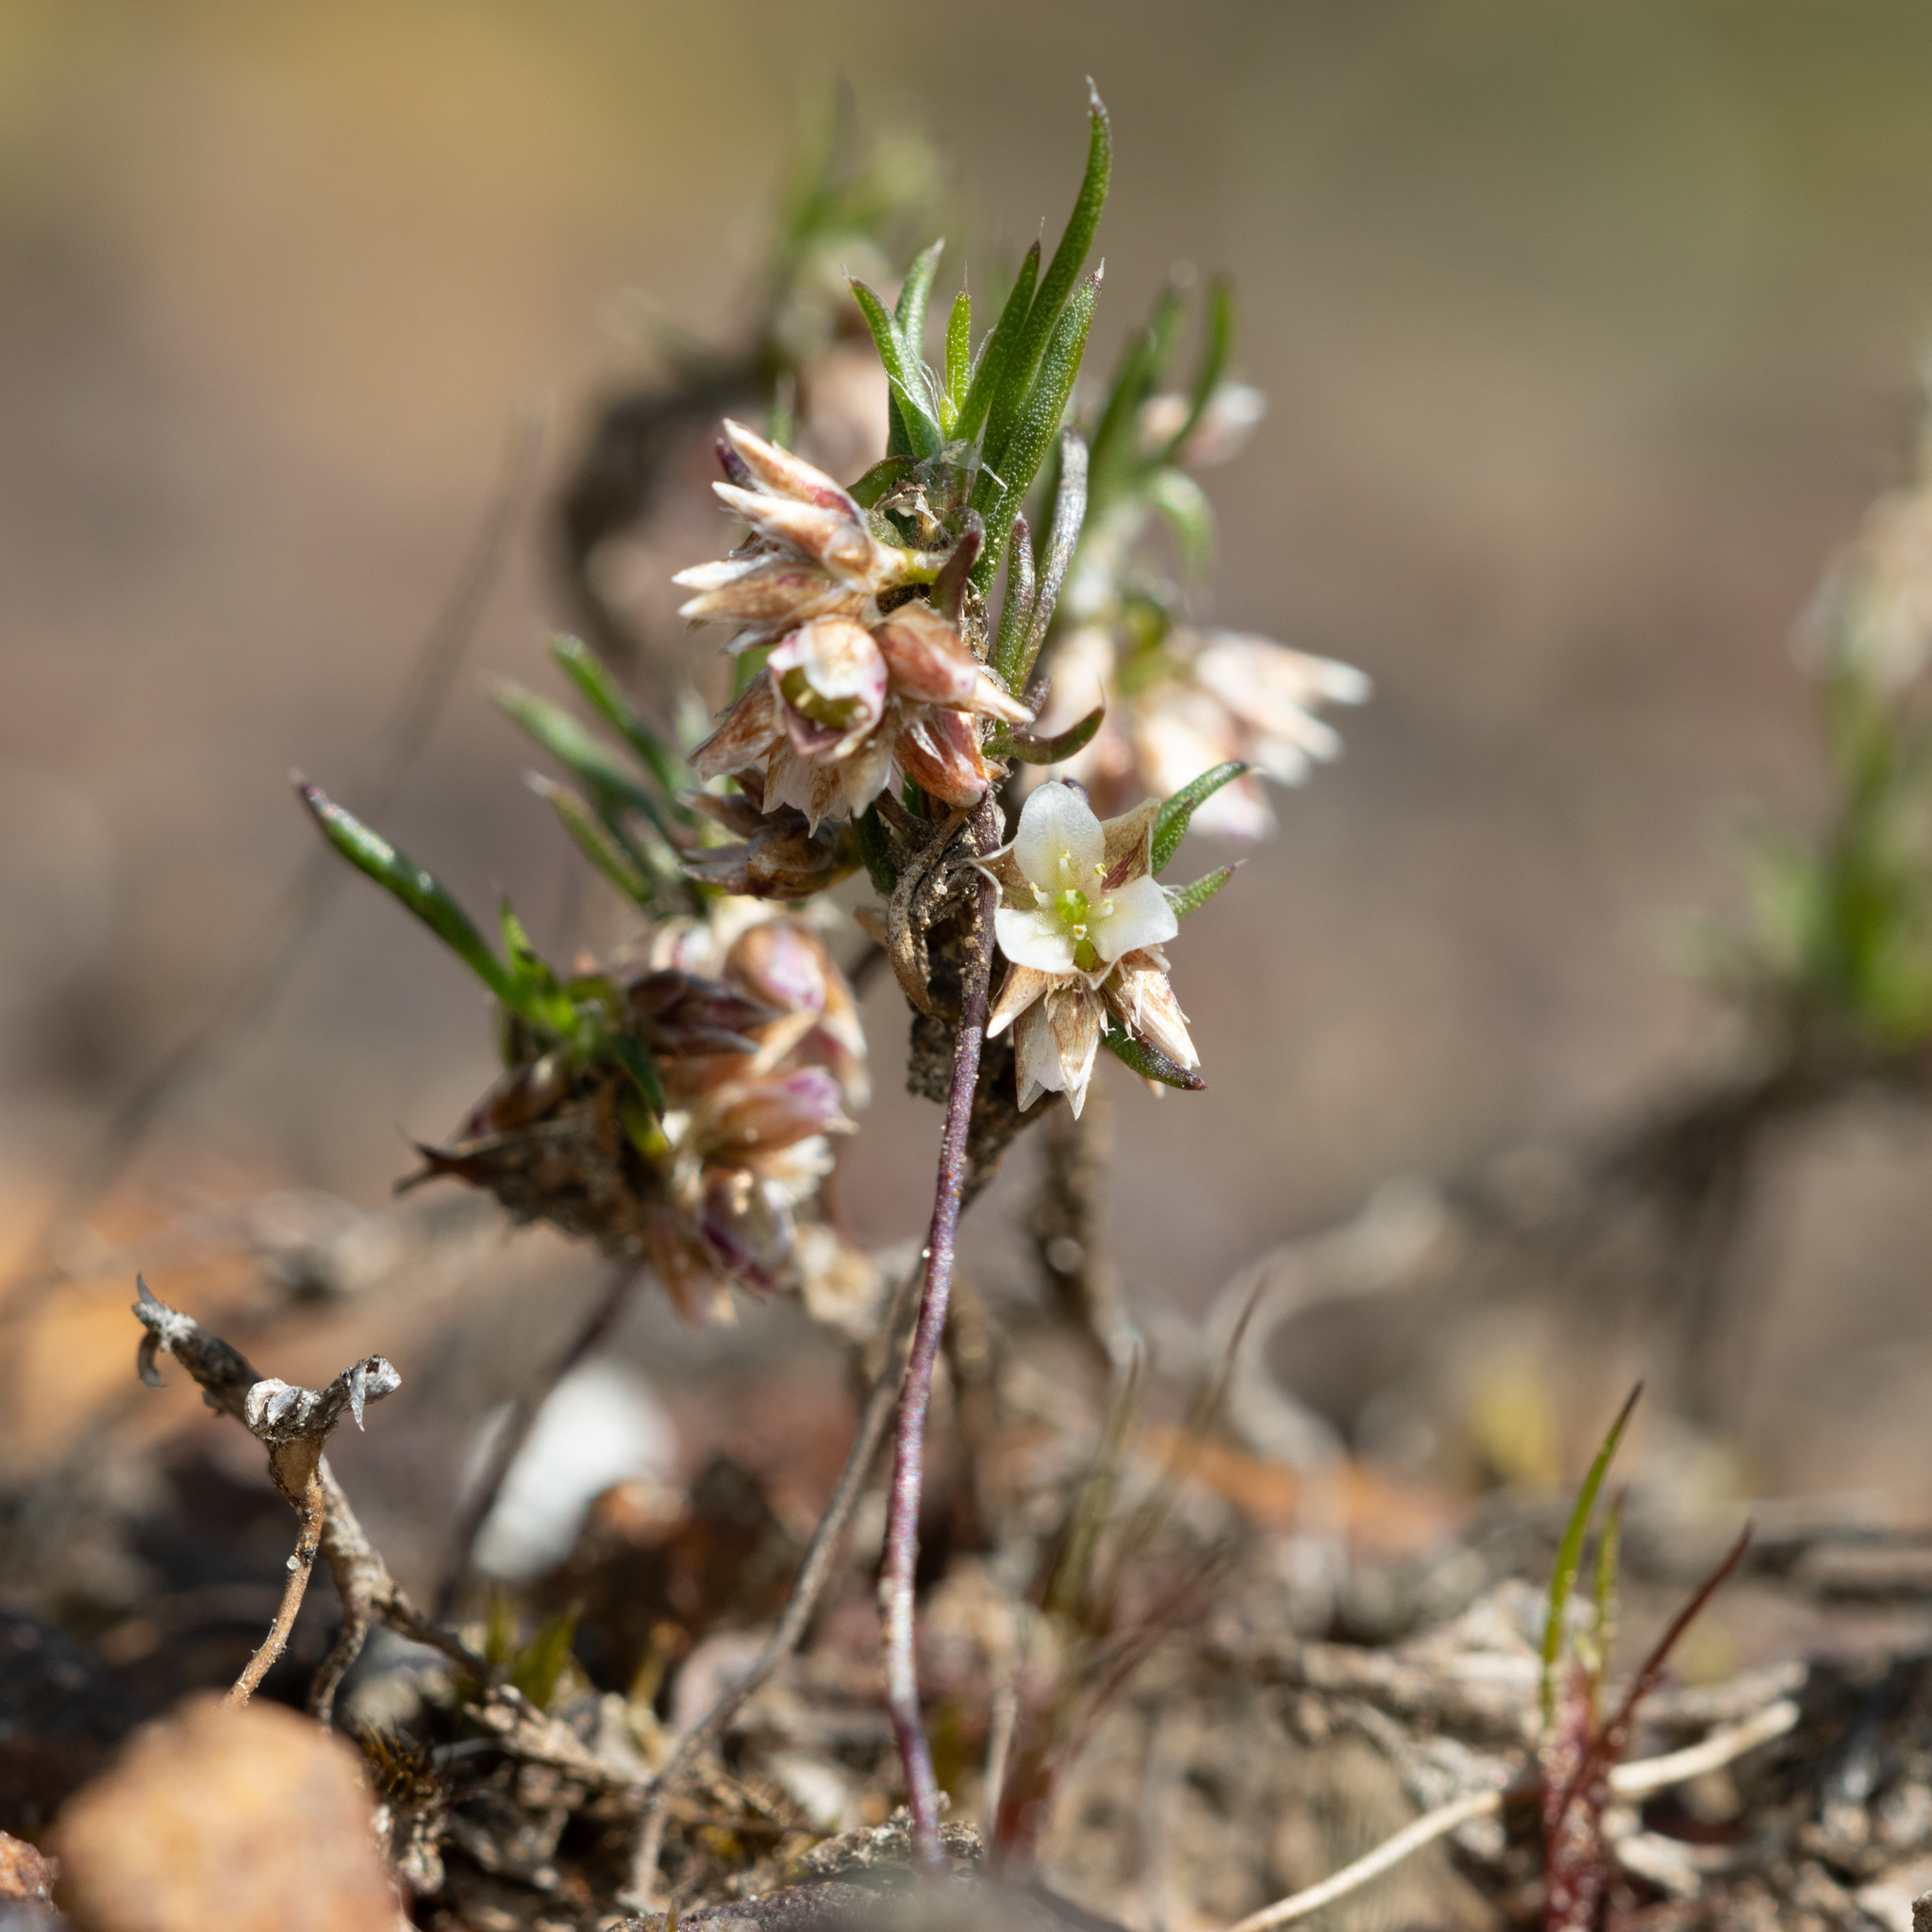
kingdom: Plantae
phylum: Tracheophyta
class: Liliopsida
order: Asparagales
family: Asparagaceae
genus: Laxmannia
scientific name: Laxmannia orientalis
